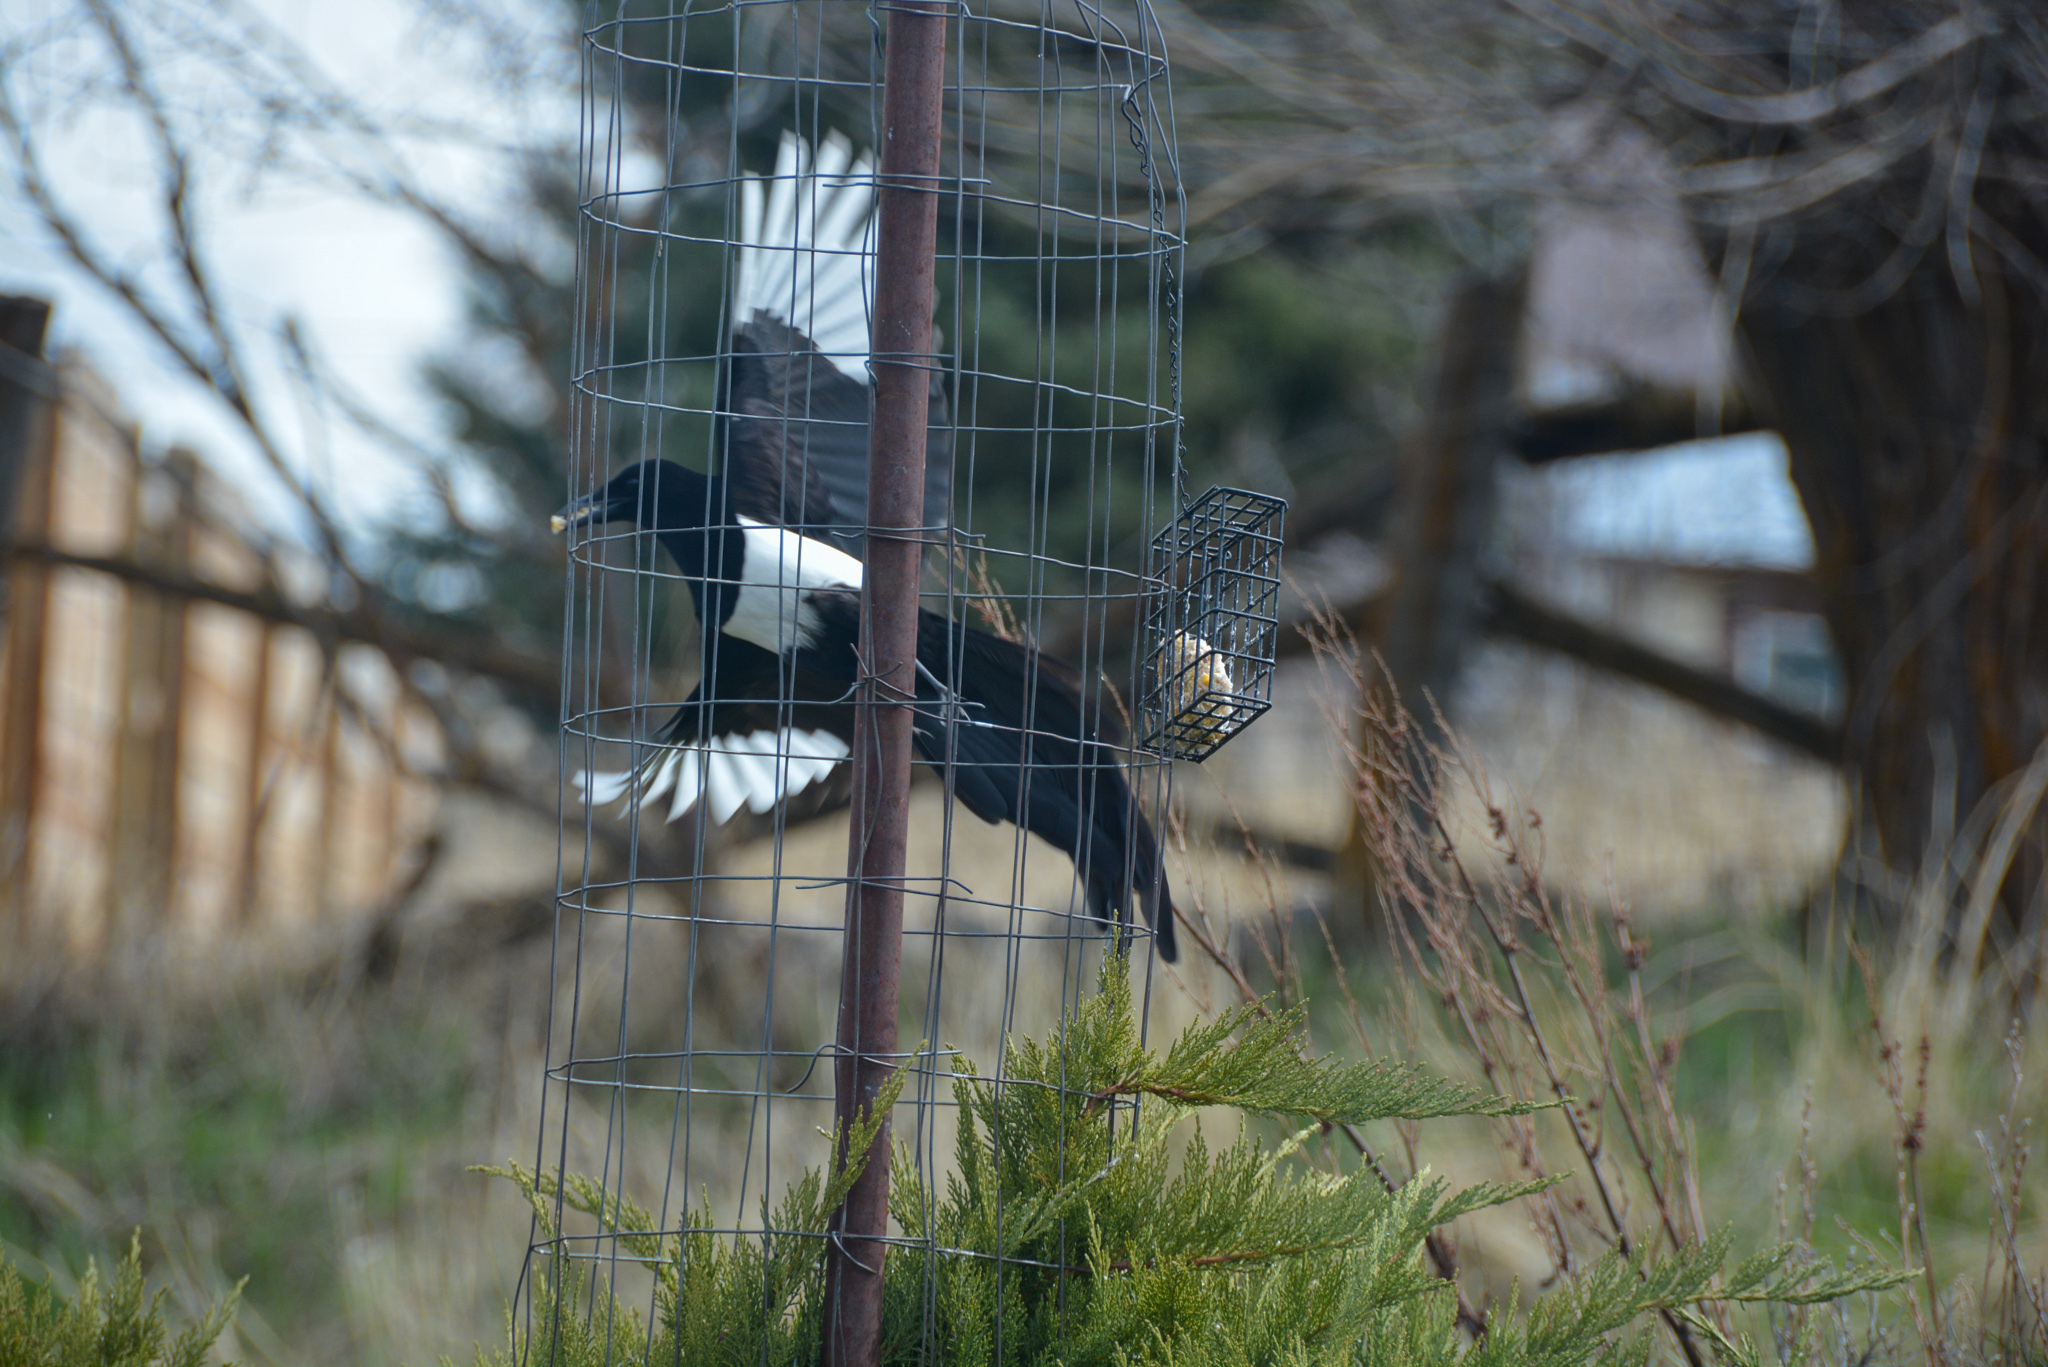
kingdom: Animalia
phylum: Chordata
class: Aves
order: Passeriformes
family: Corvidae
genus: Pica
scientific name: Pica hudsonia
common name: Black-billed magpie
